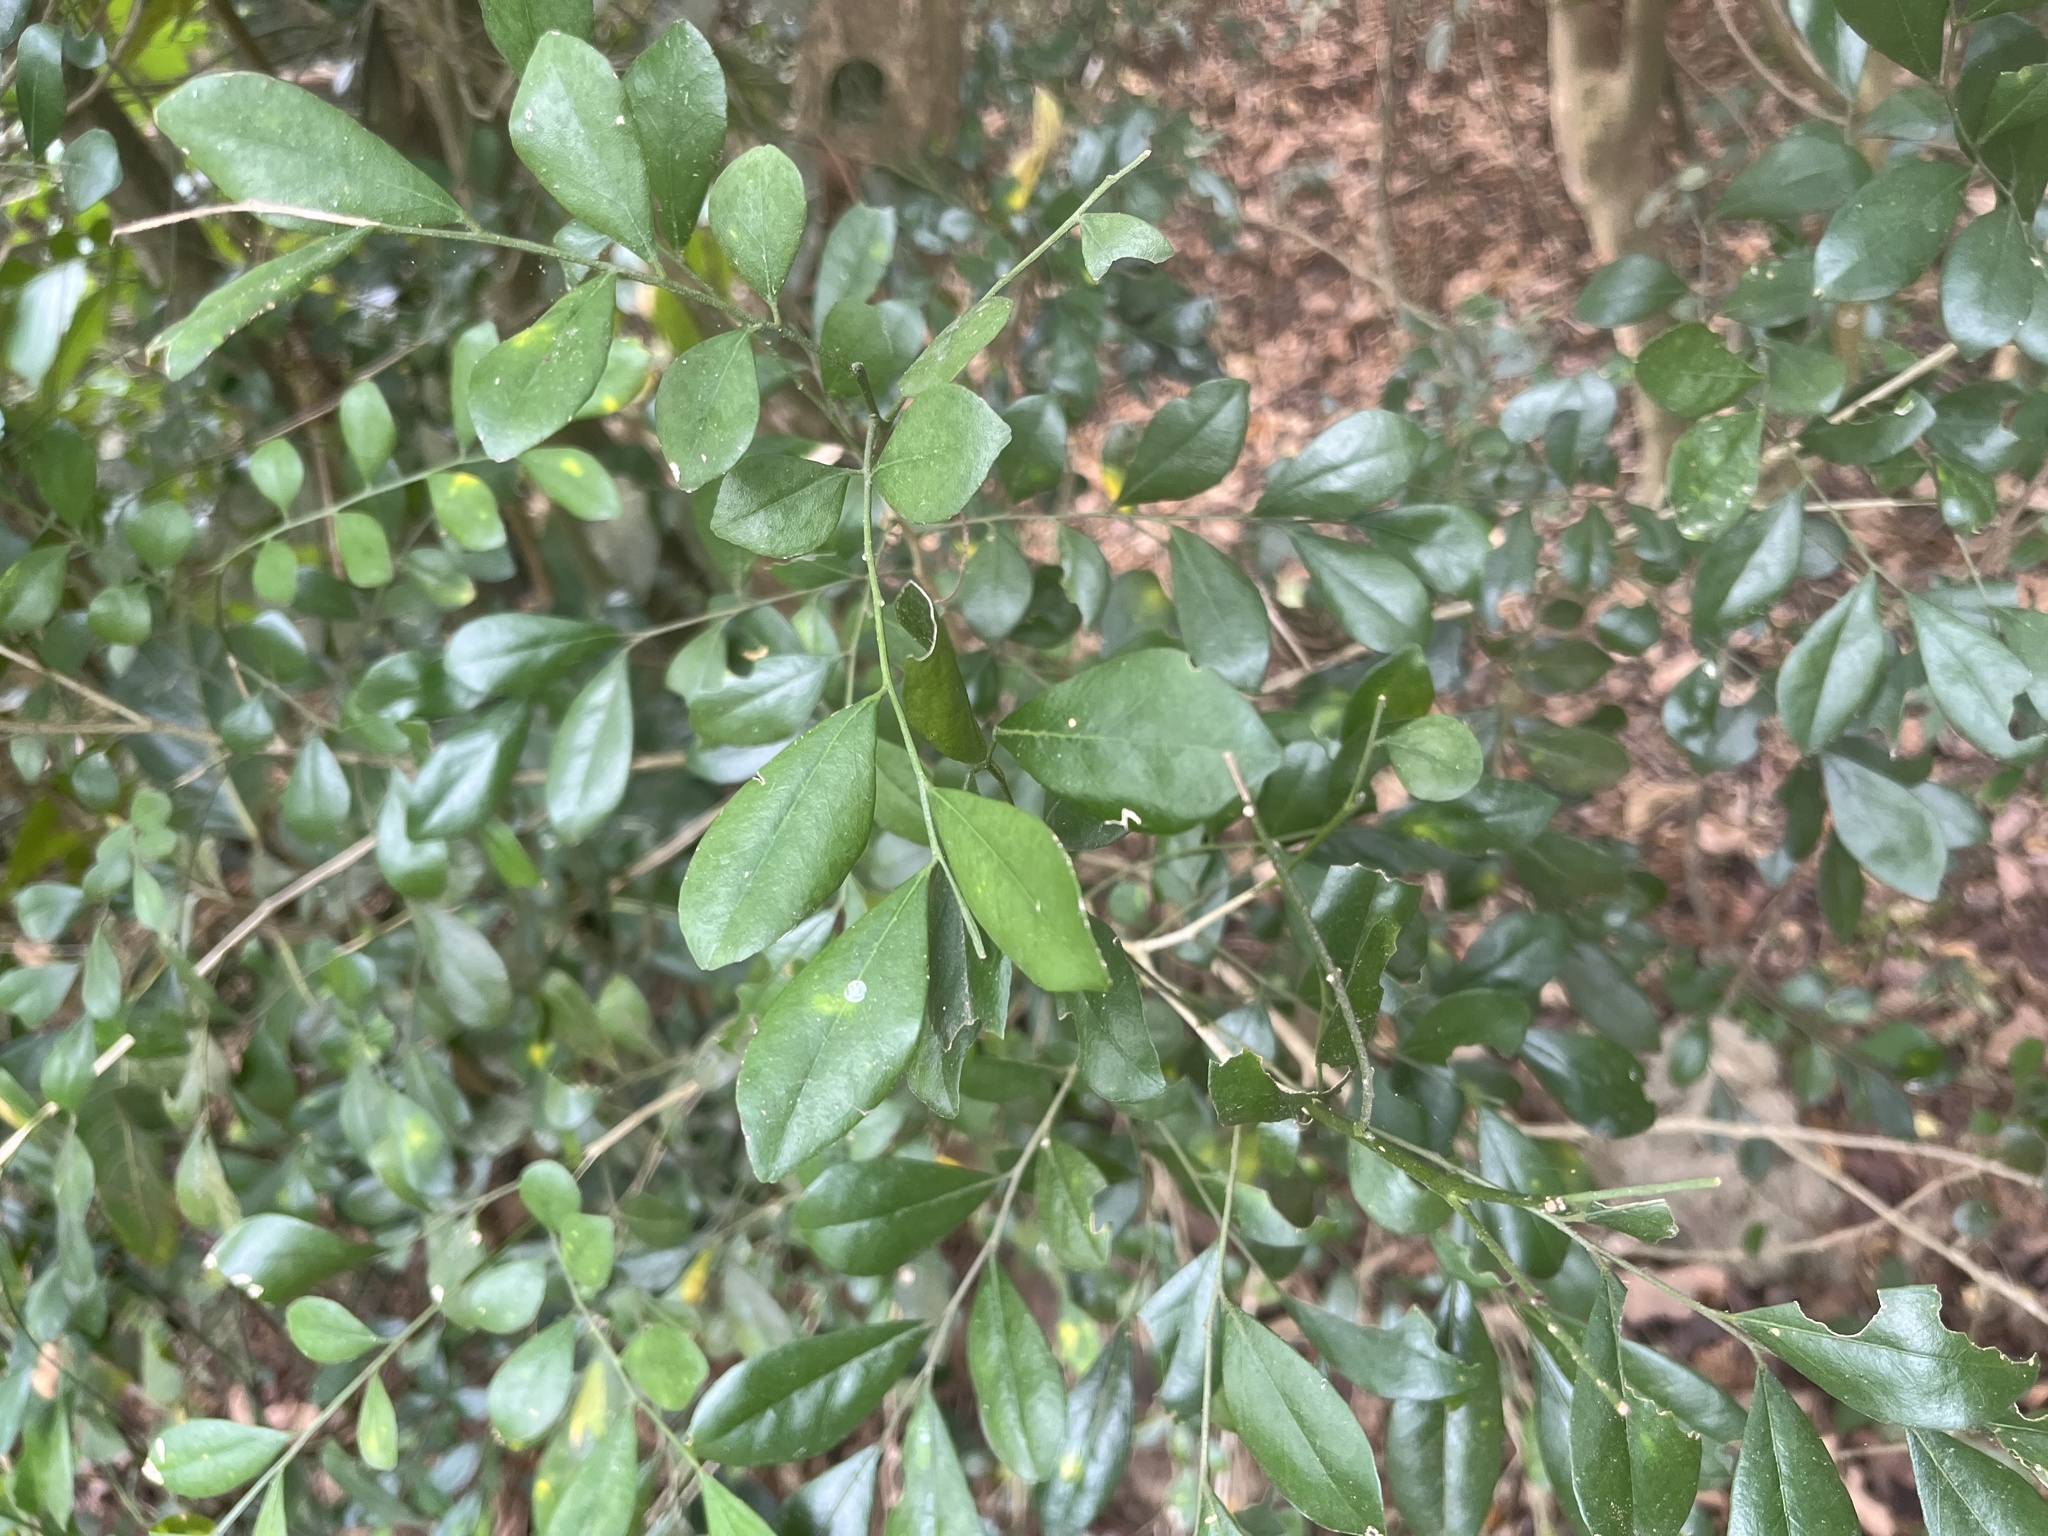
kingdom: Plantae
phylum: Tracheophyta
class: Magnoliopsida
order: Sapindales
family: Rutaceae
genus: Murraya
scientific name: Murraya paniculata
